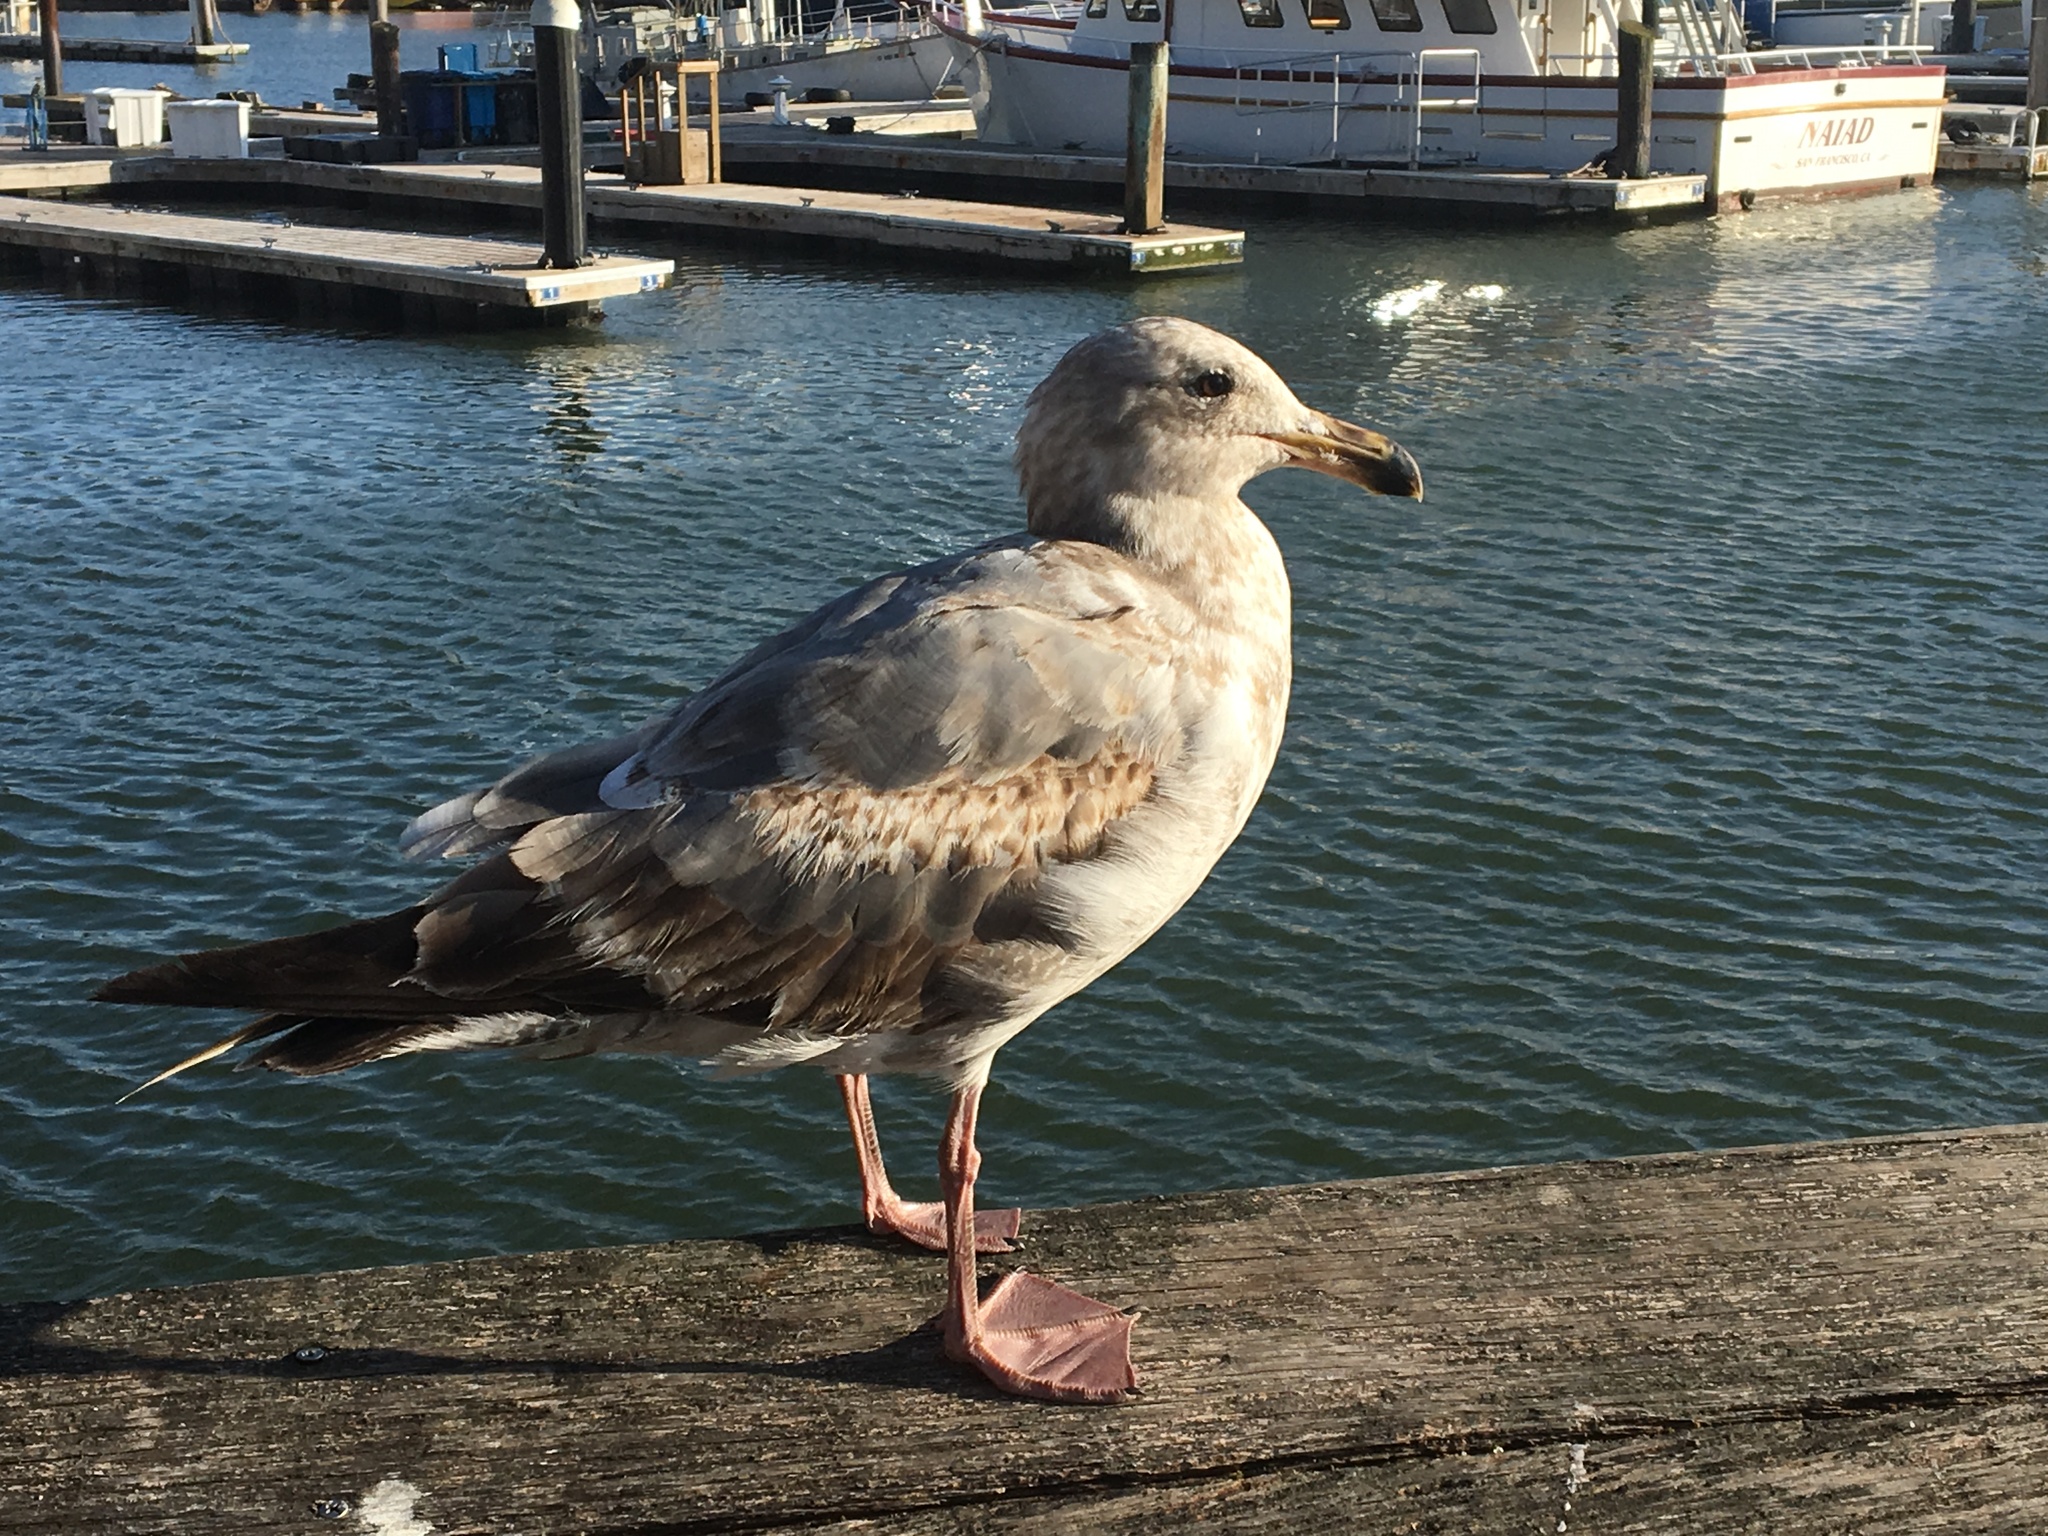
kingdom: Animalia
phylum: Chordata
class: Aves
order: Charadriiformes
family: Laridae
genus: Larus
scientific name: Larus occidentalis
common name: Western gull
